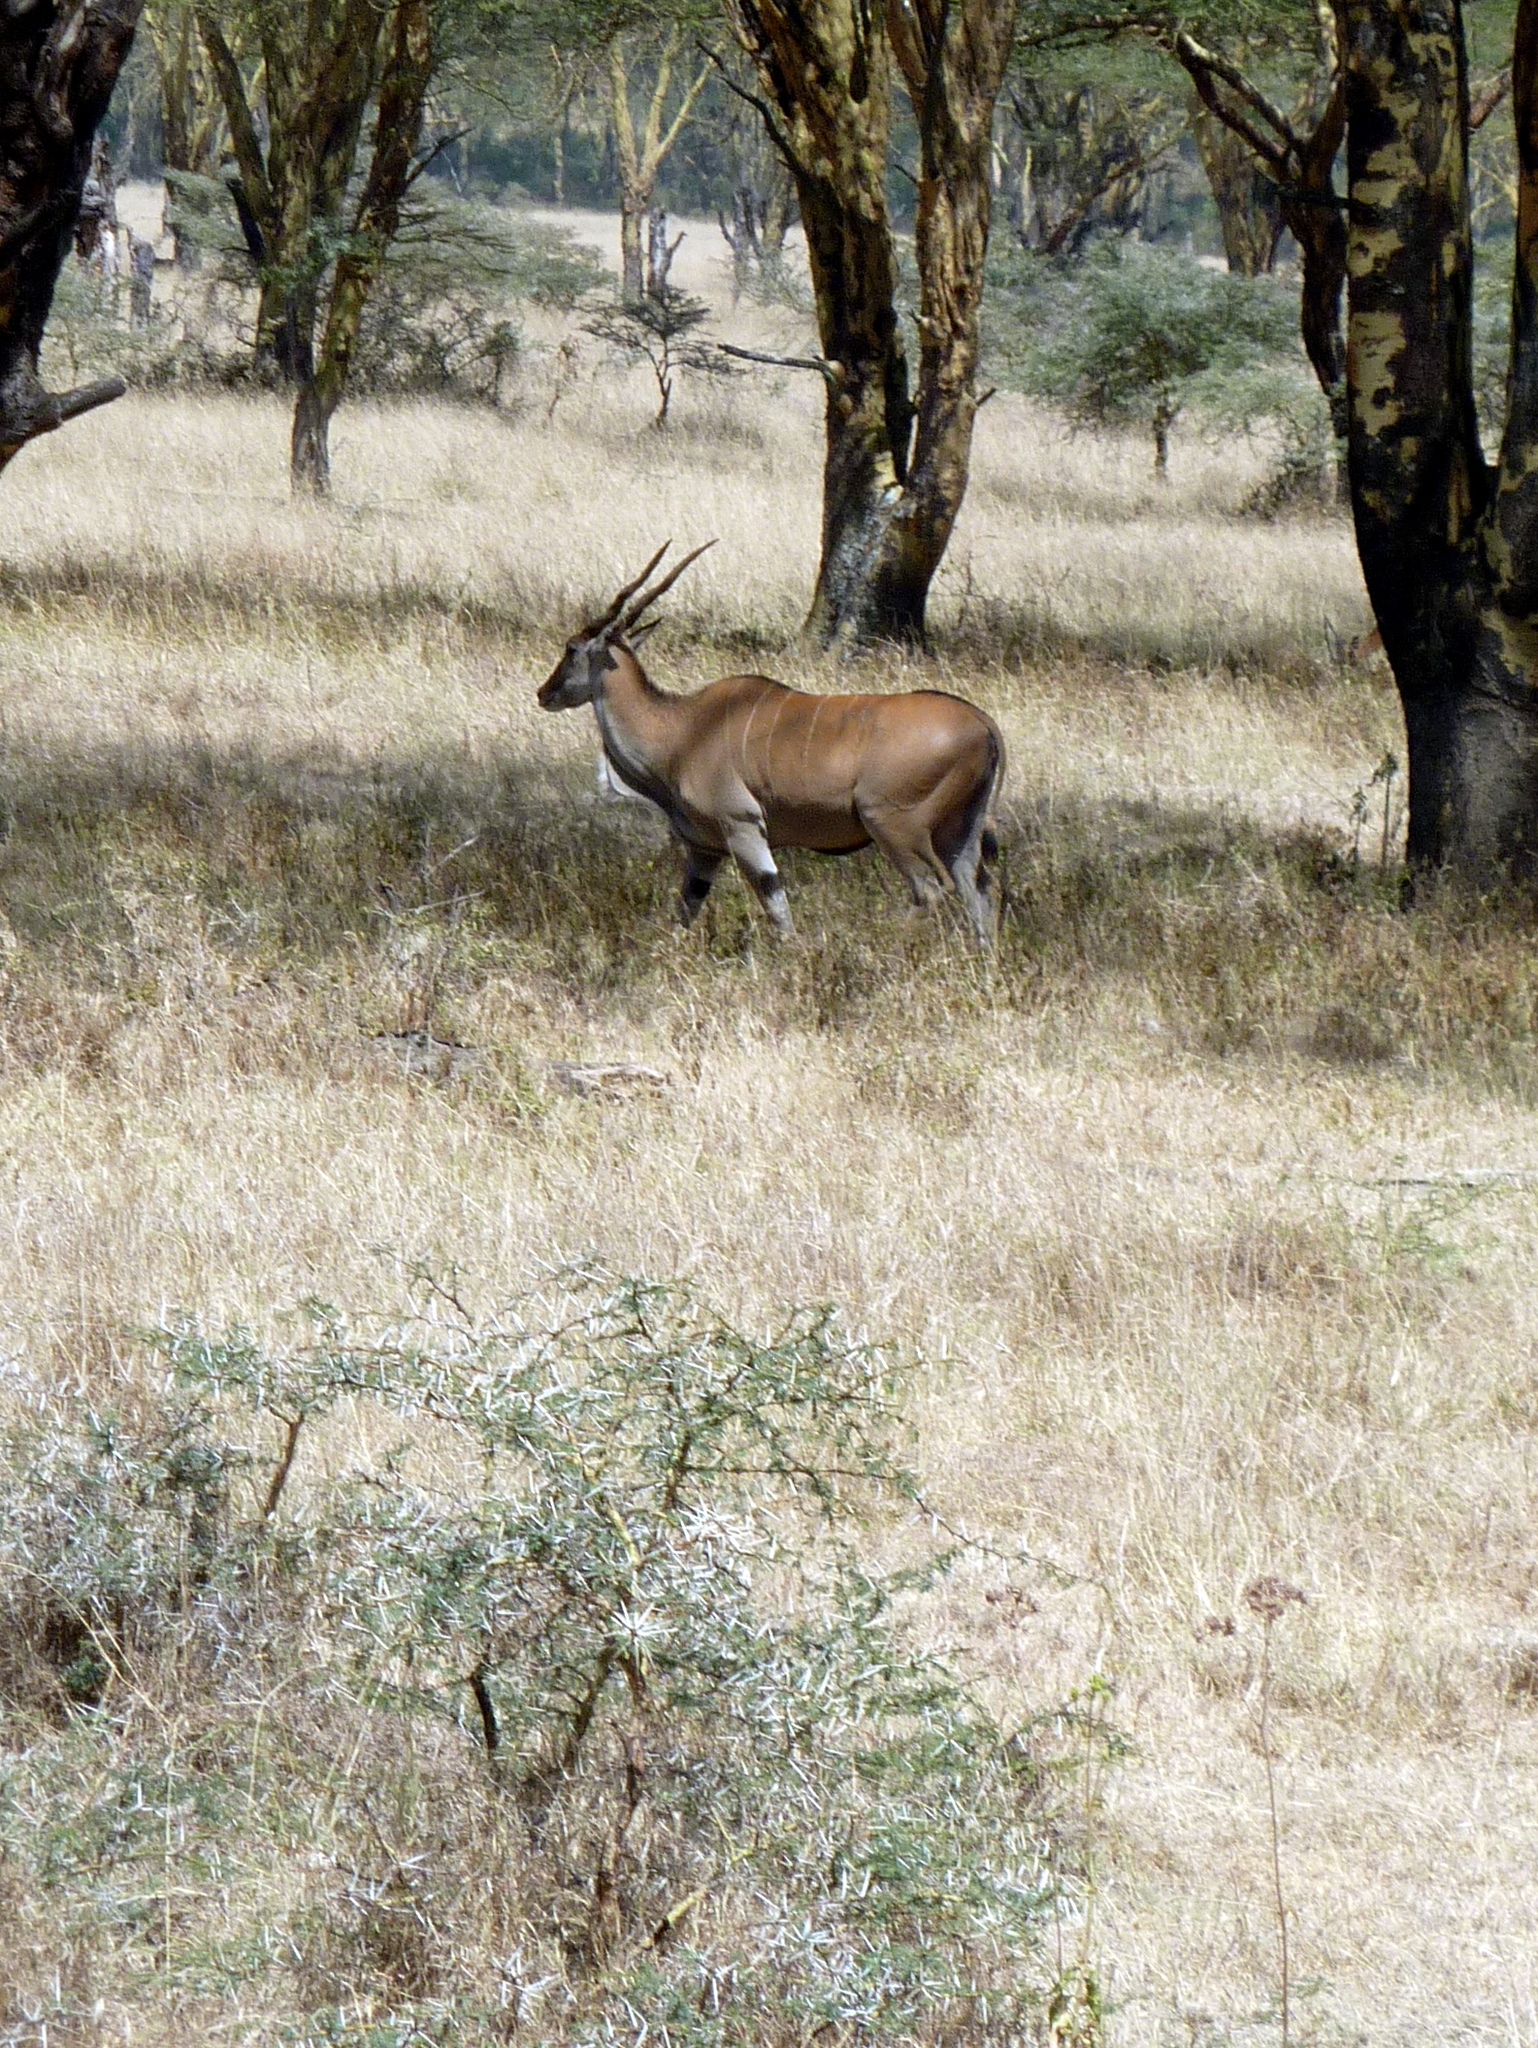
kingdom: Animalia
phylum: Chordata
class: Mammalia
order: Artiodactyla
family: Bovidae
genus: Taurotragus
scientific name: Taurotragus oryx
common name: Common eland
